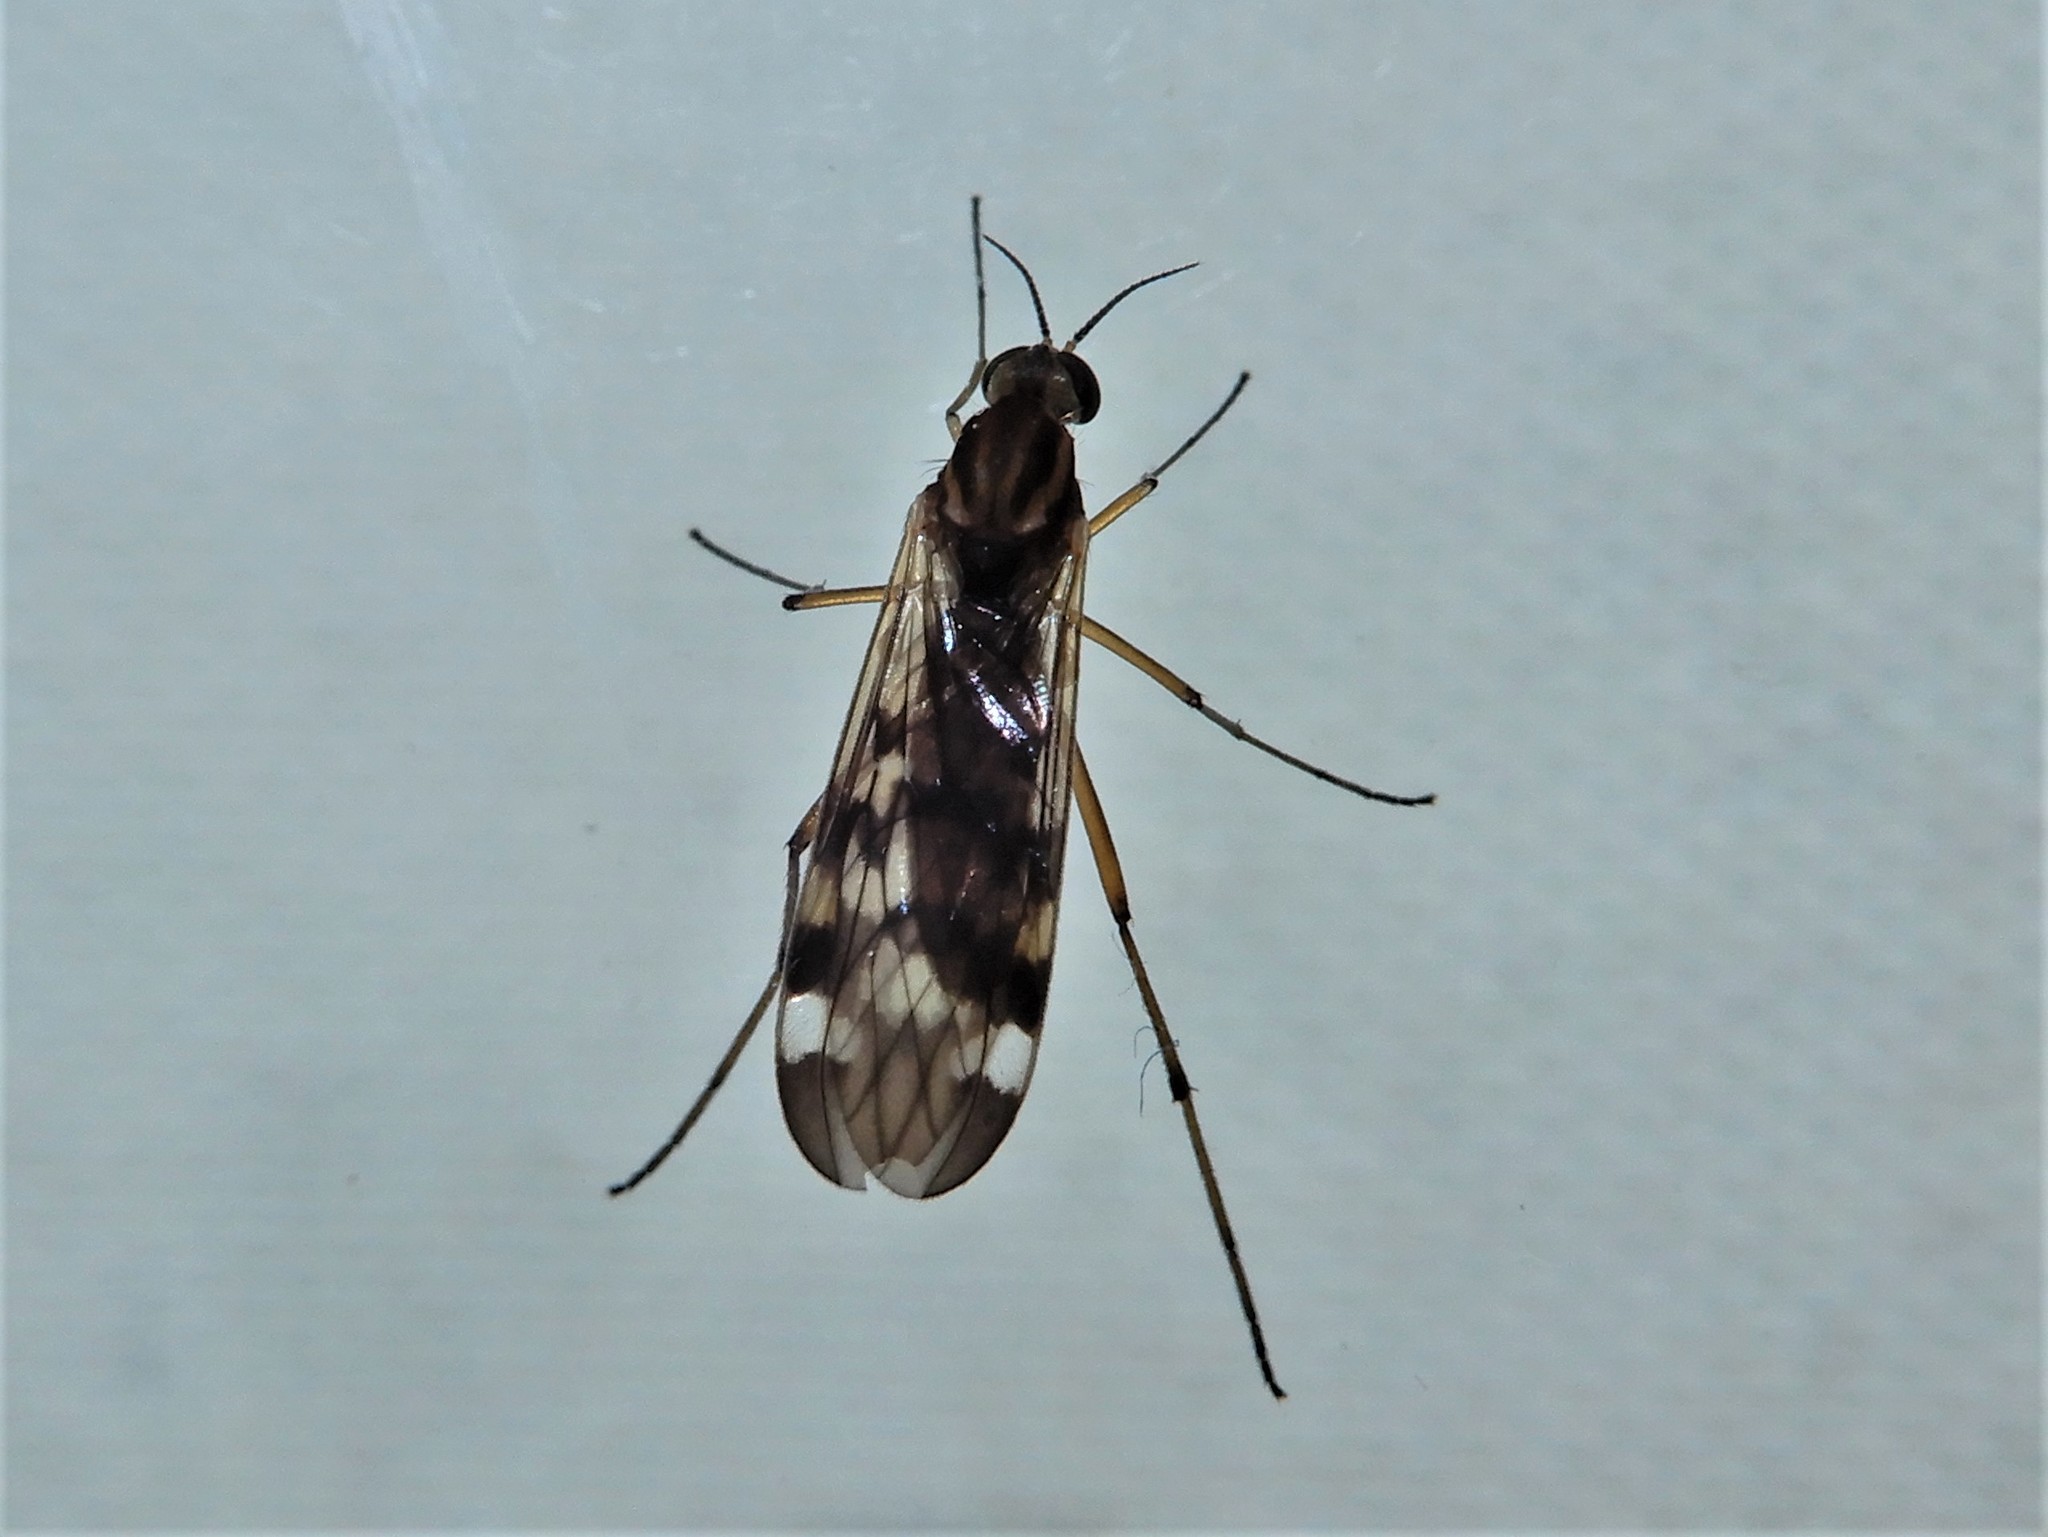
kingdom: Animalia
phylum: Arthropoda
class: Insecta
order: Diptera
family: Anisopodidae
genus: Sylvicola
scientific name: Sylvicola notatus
